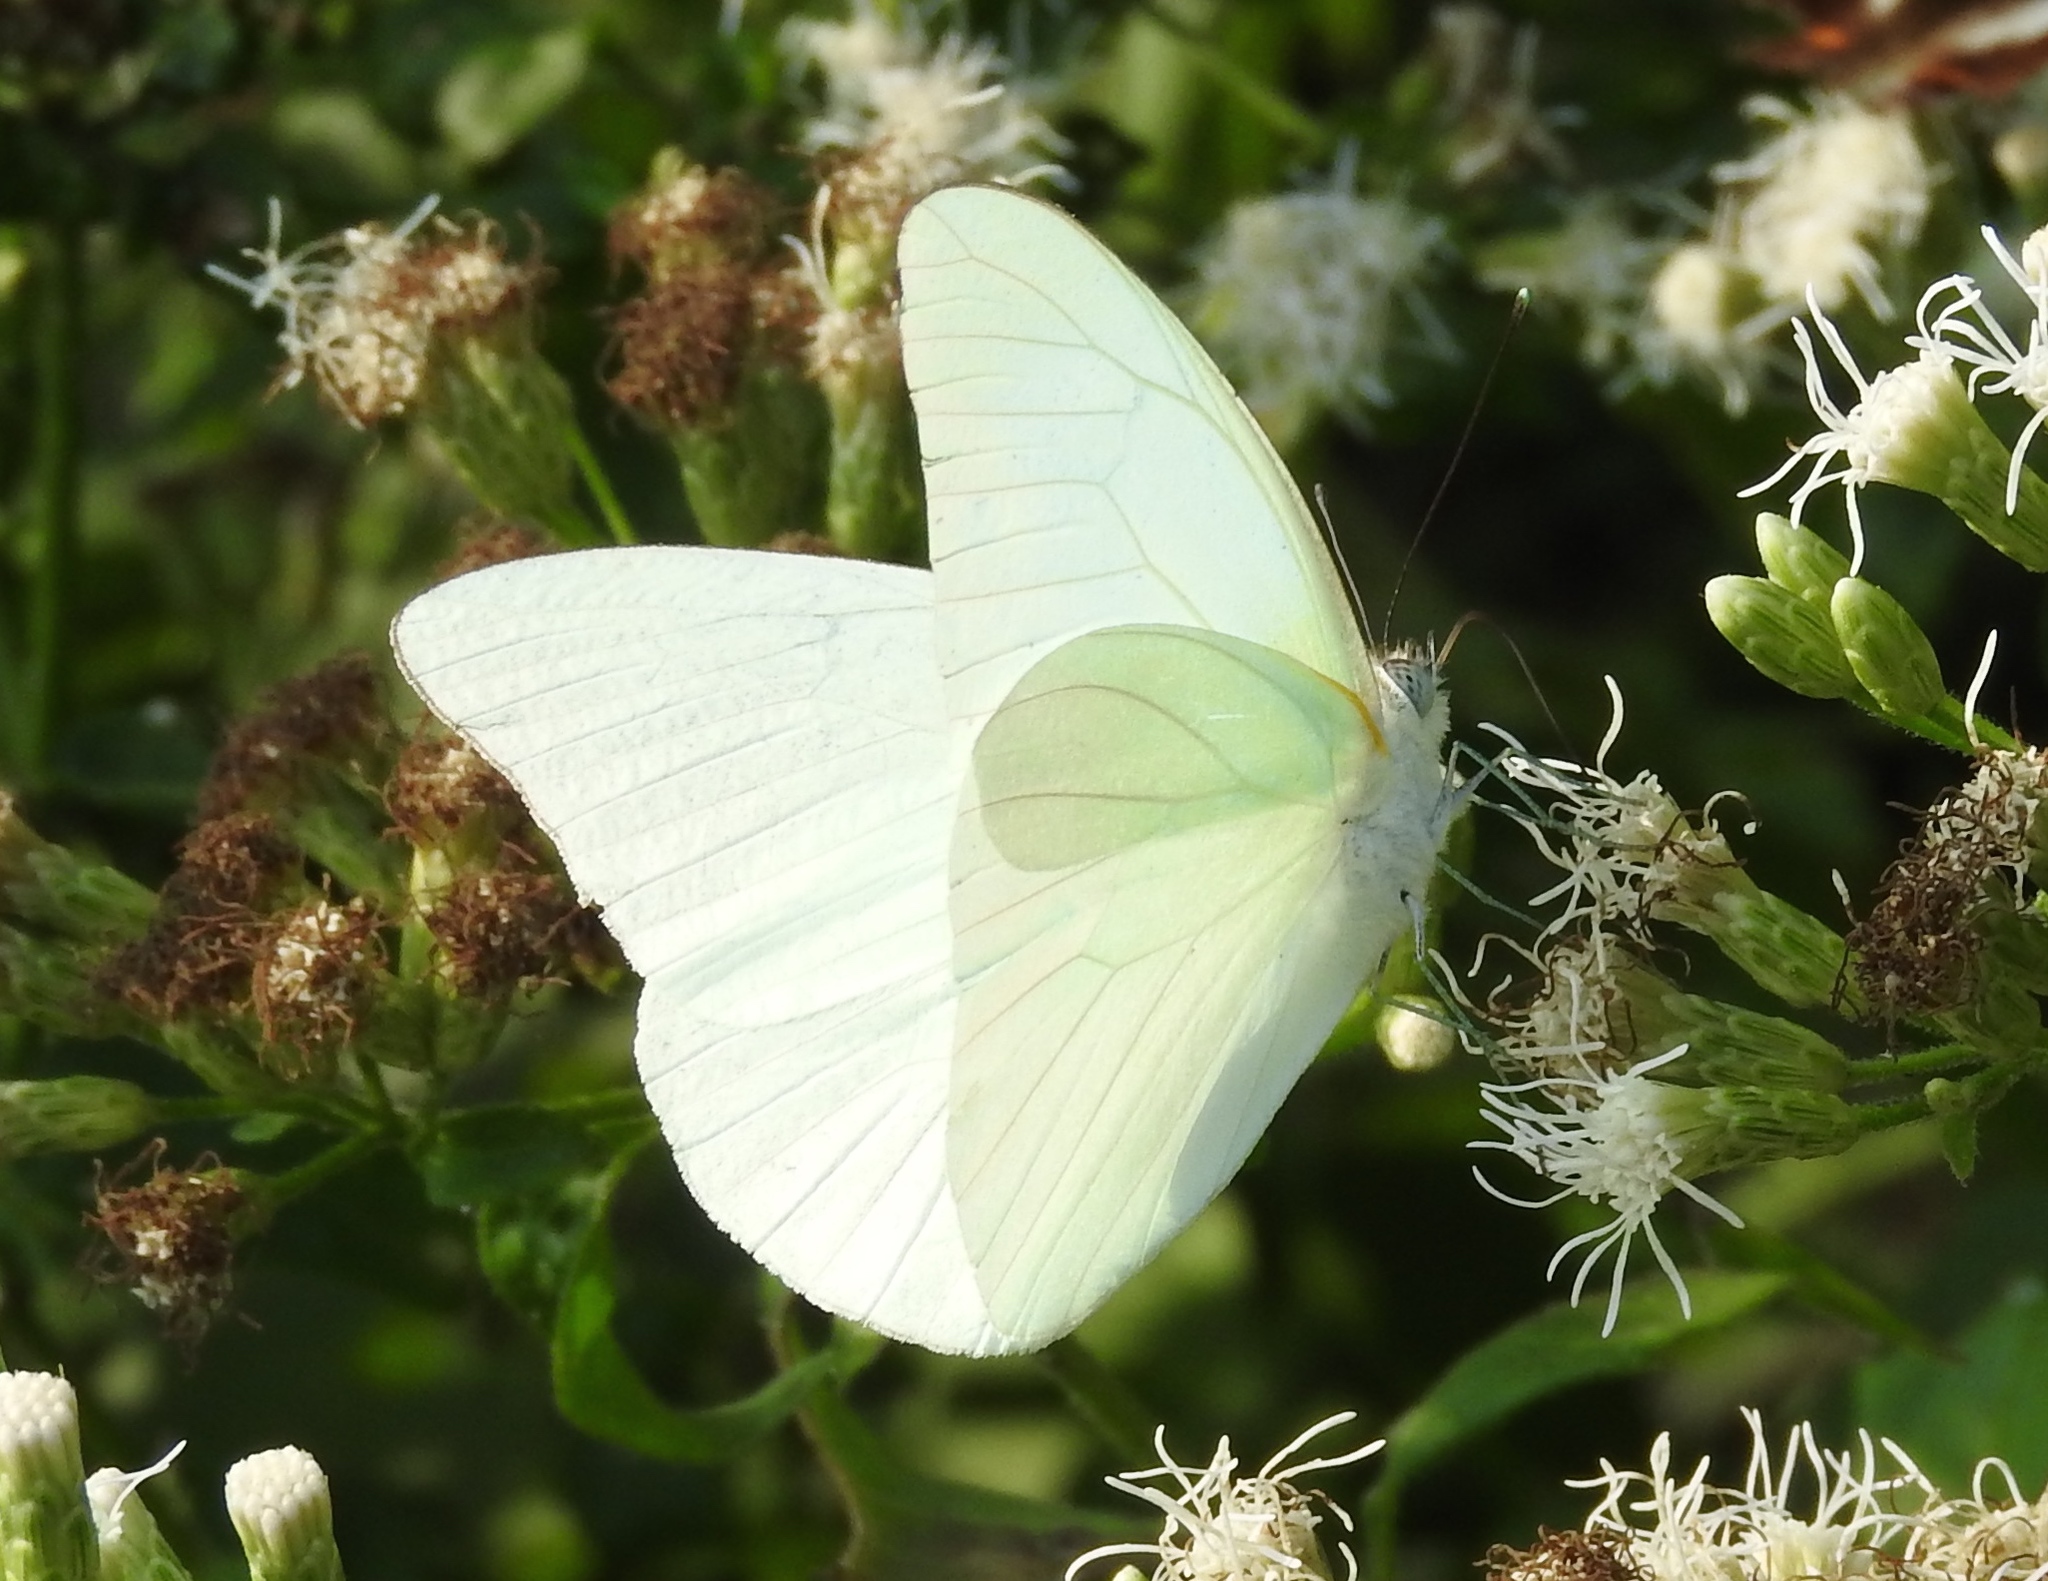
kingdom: Animalia
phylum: Arthropoda
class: Insecta
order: Lepidoptera
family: Pieridae
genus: Glutophrissa
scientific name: Glutophrissa drusilla
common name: Florida white
